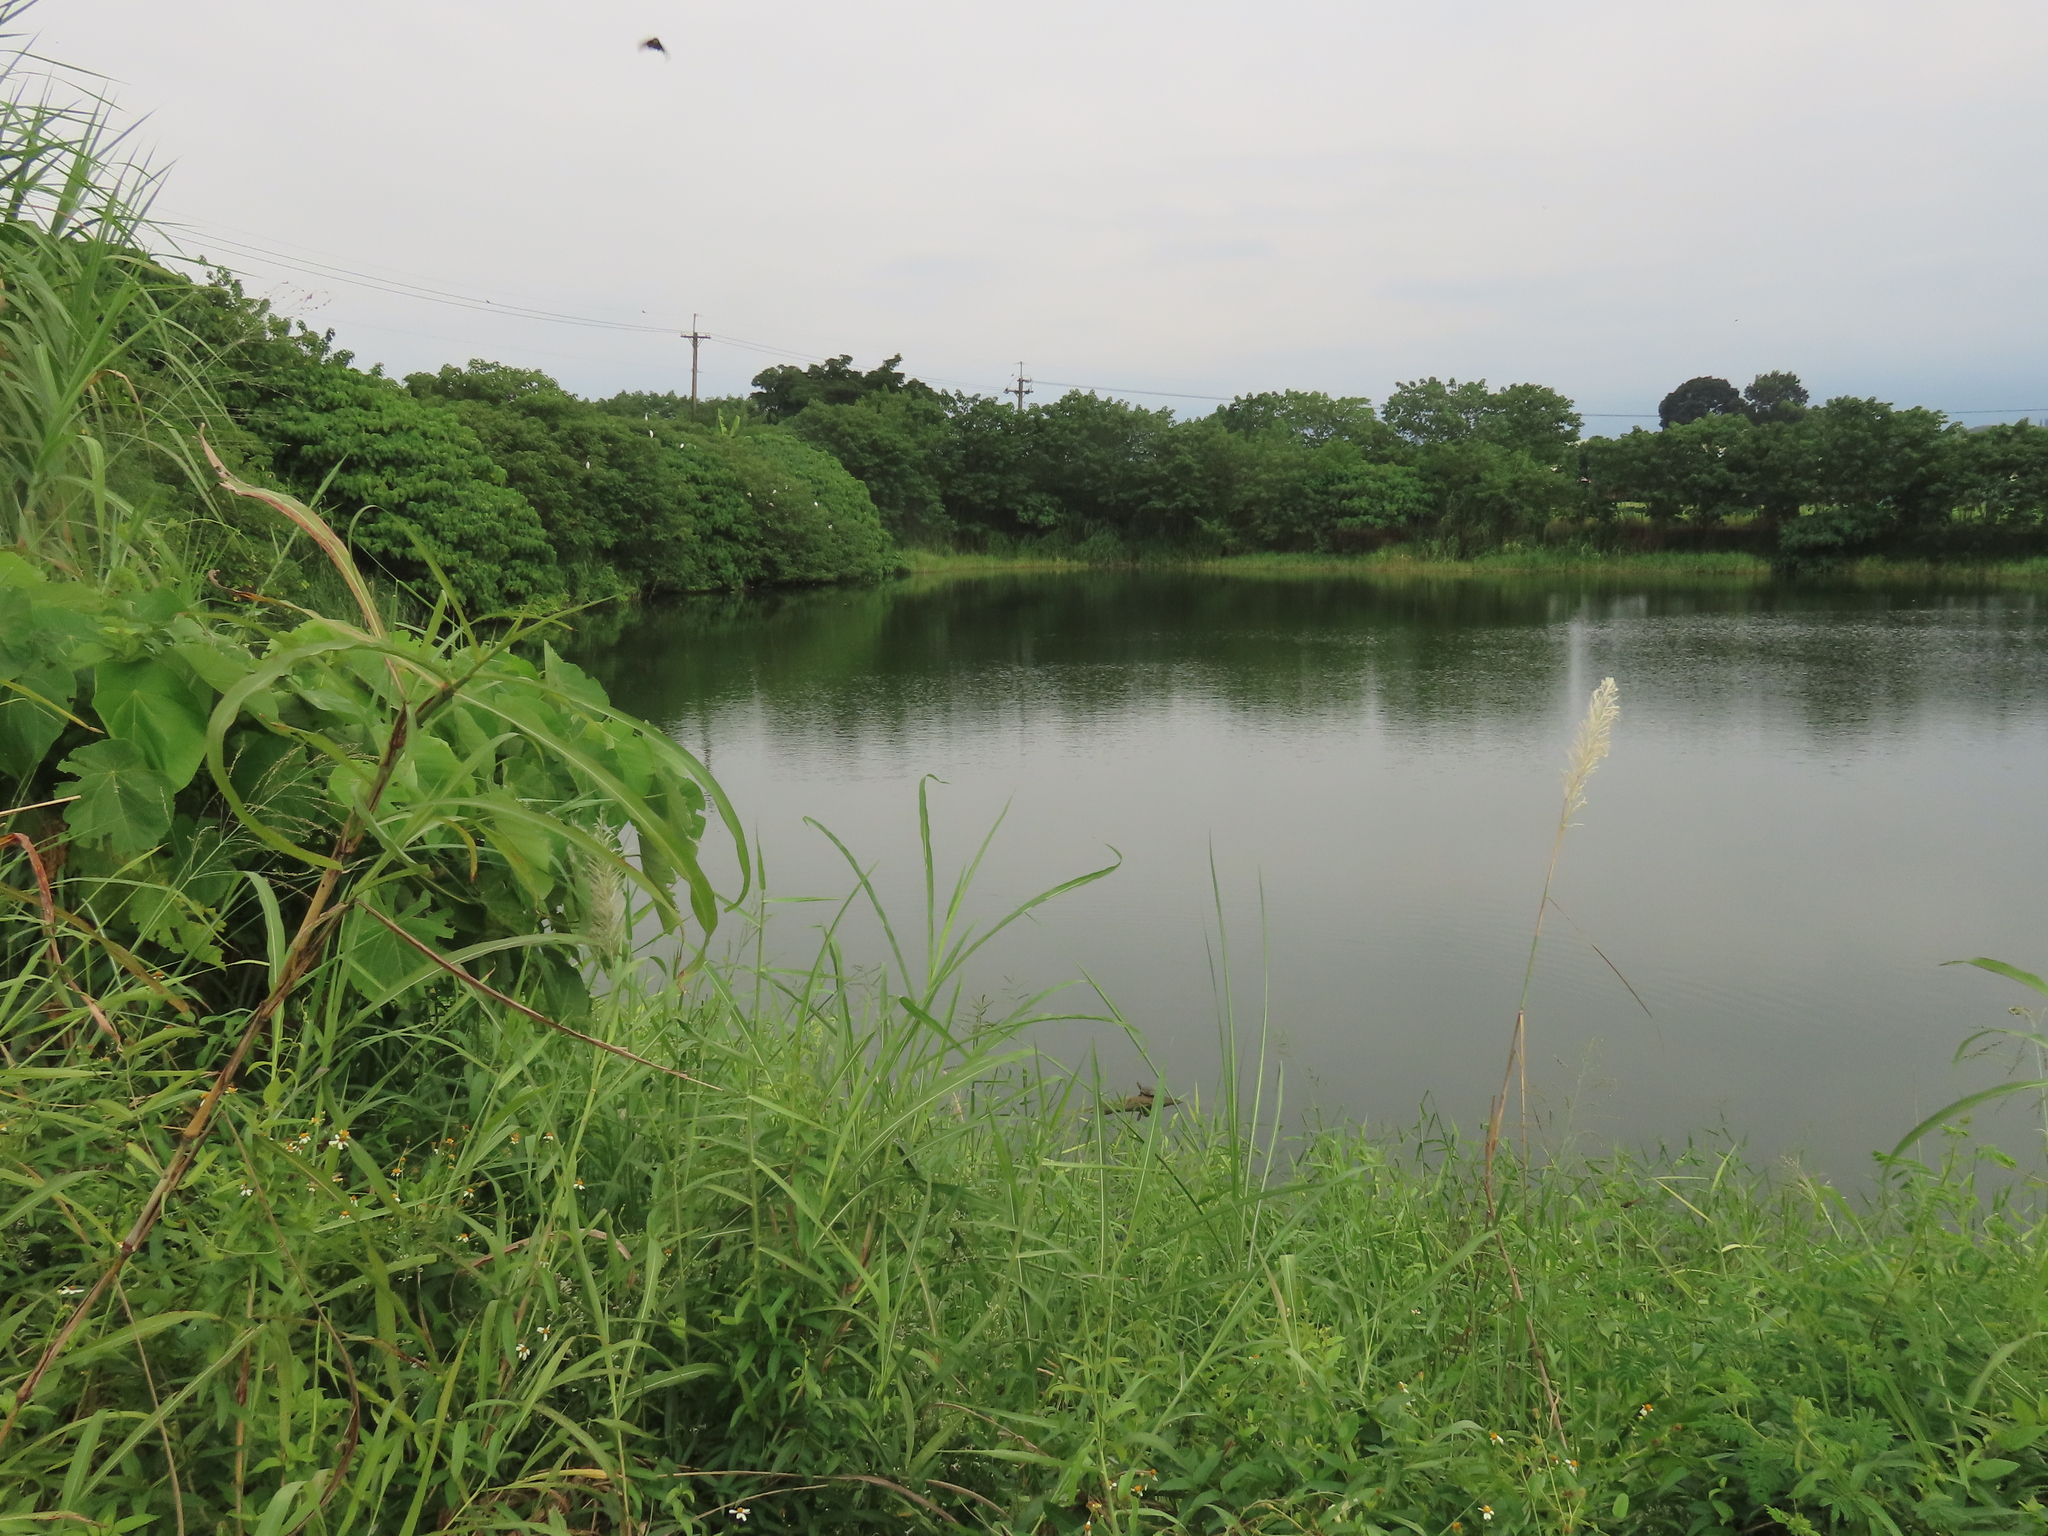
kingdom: Animalia
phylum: Chordata
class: Testudines
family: Geoemydidae
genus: Mauremys
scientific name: Mauremys sinensis
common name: Chinese stripe-necked turtle
